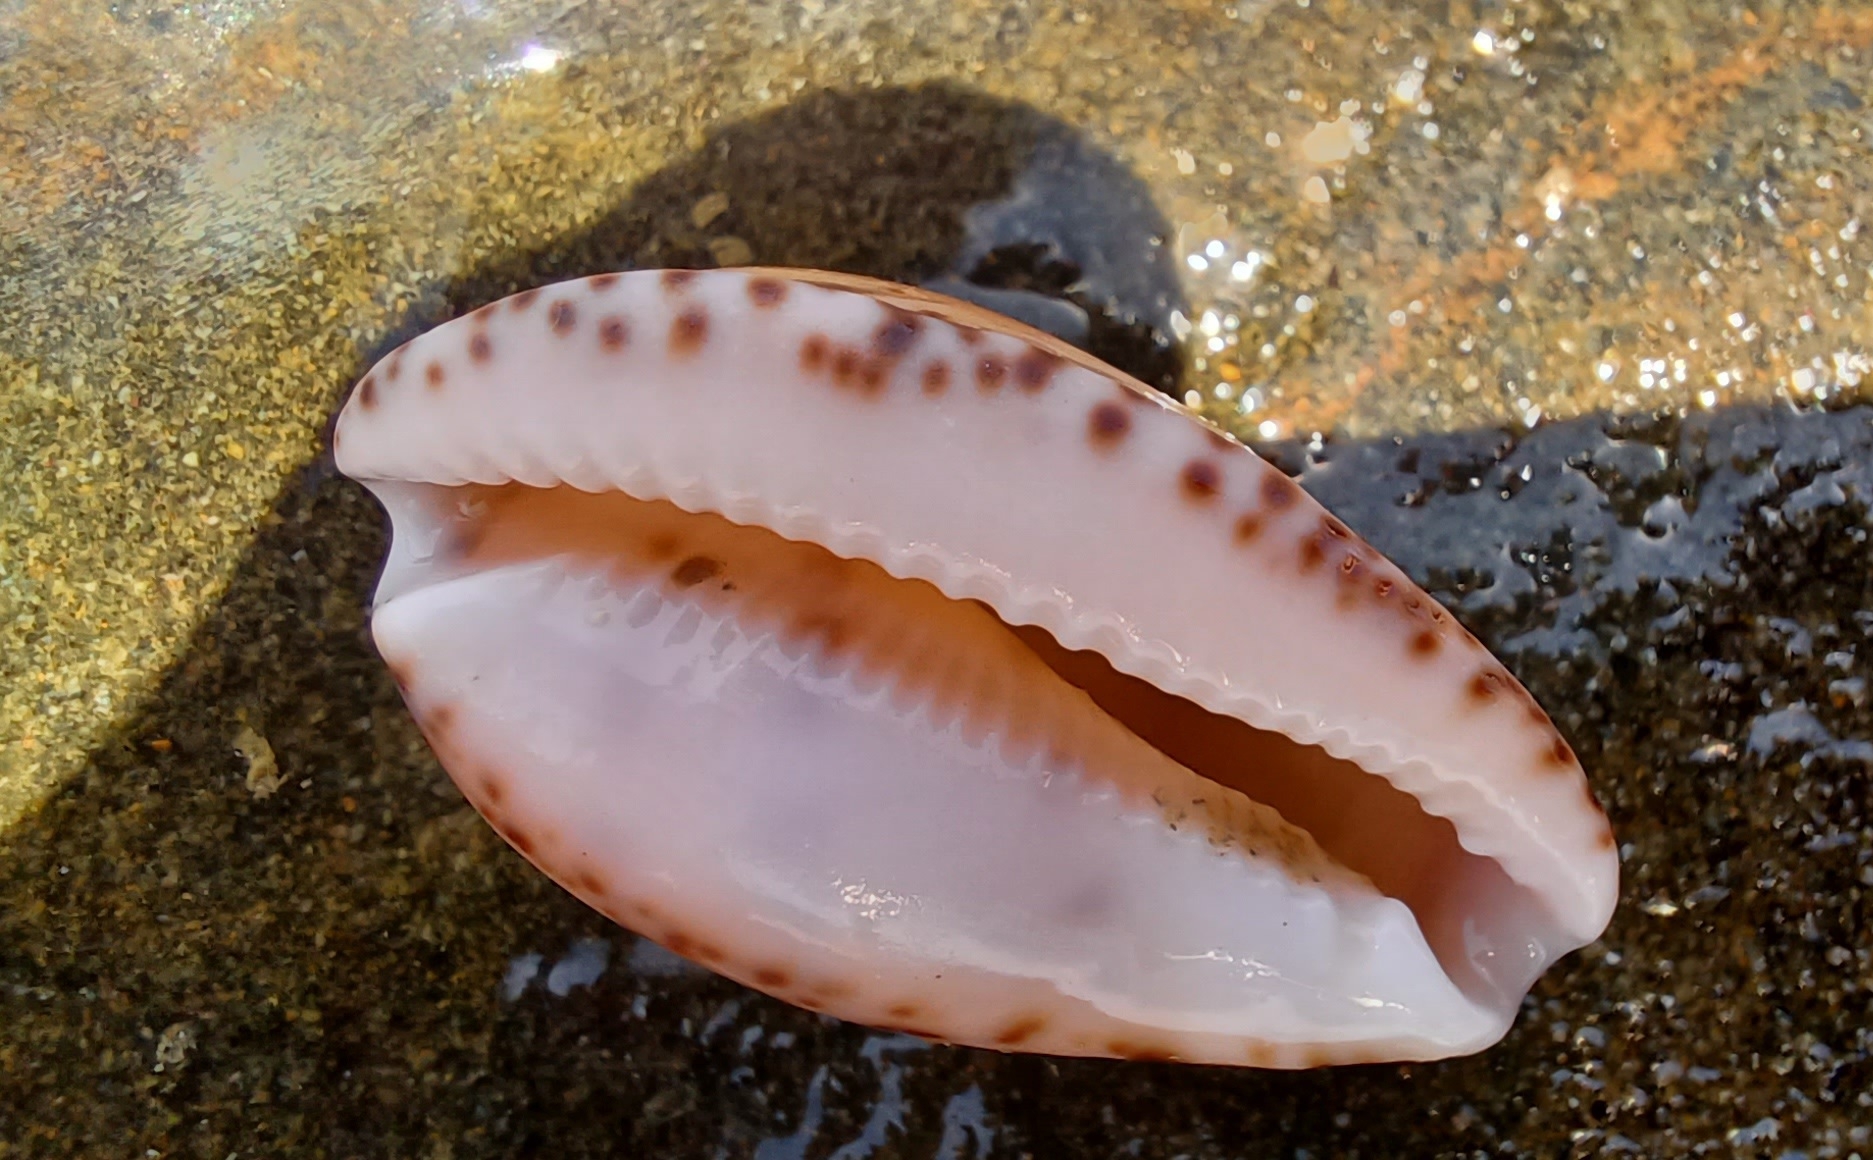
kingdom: Animalia
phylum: Mollusca
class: Gastropoda
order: Littorinimorpha
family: Cypraeidae
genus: Notocypraea
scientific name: Notocypraea comptonii
